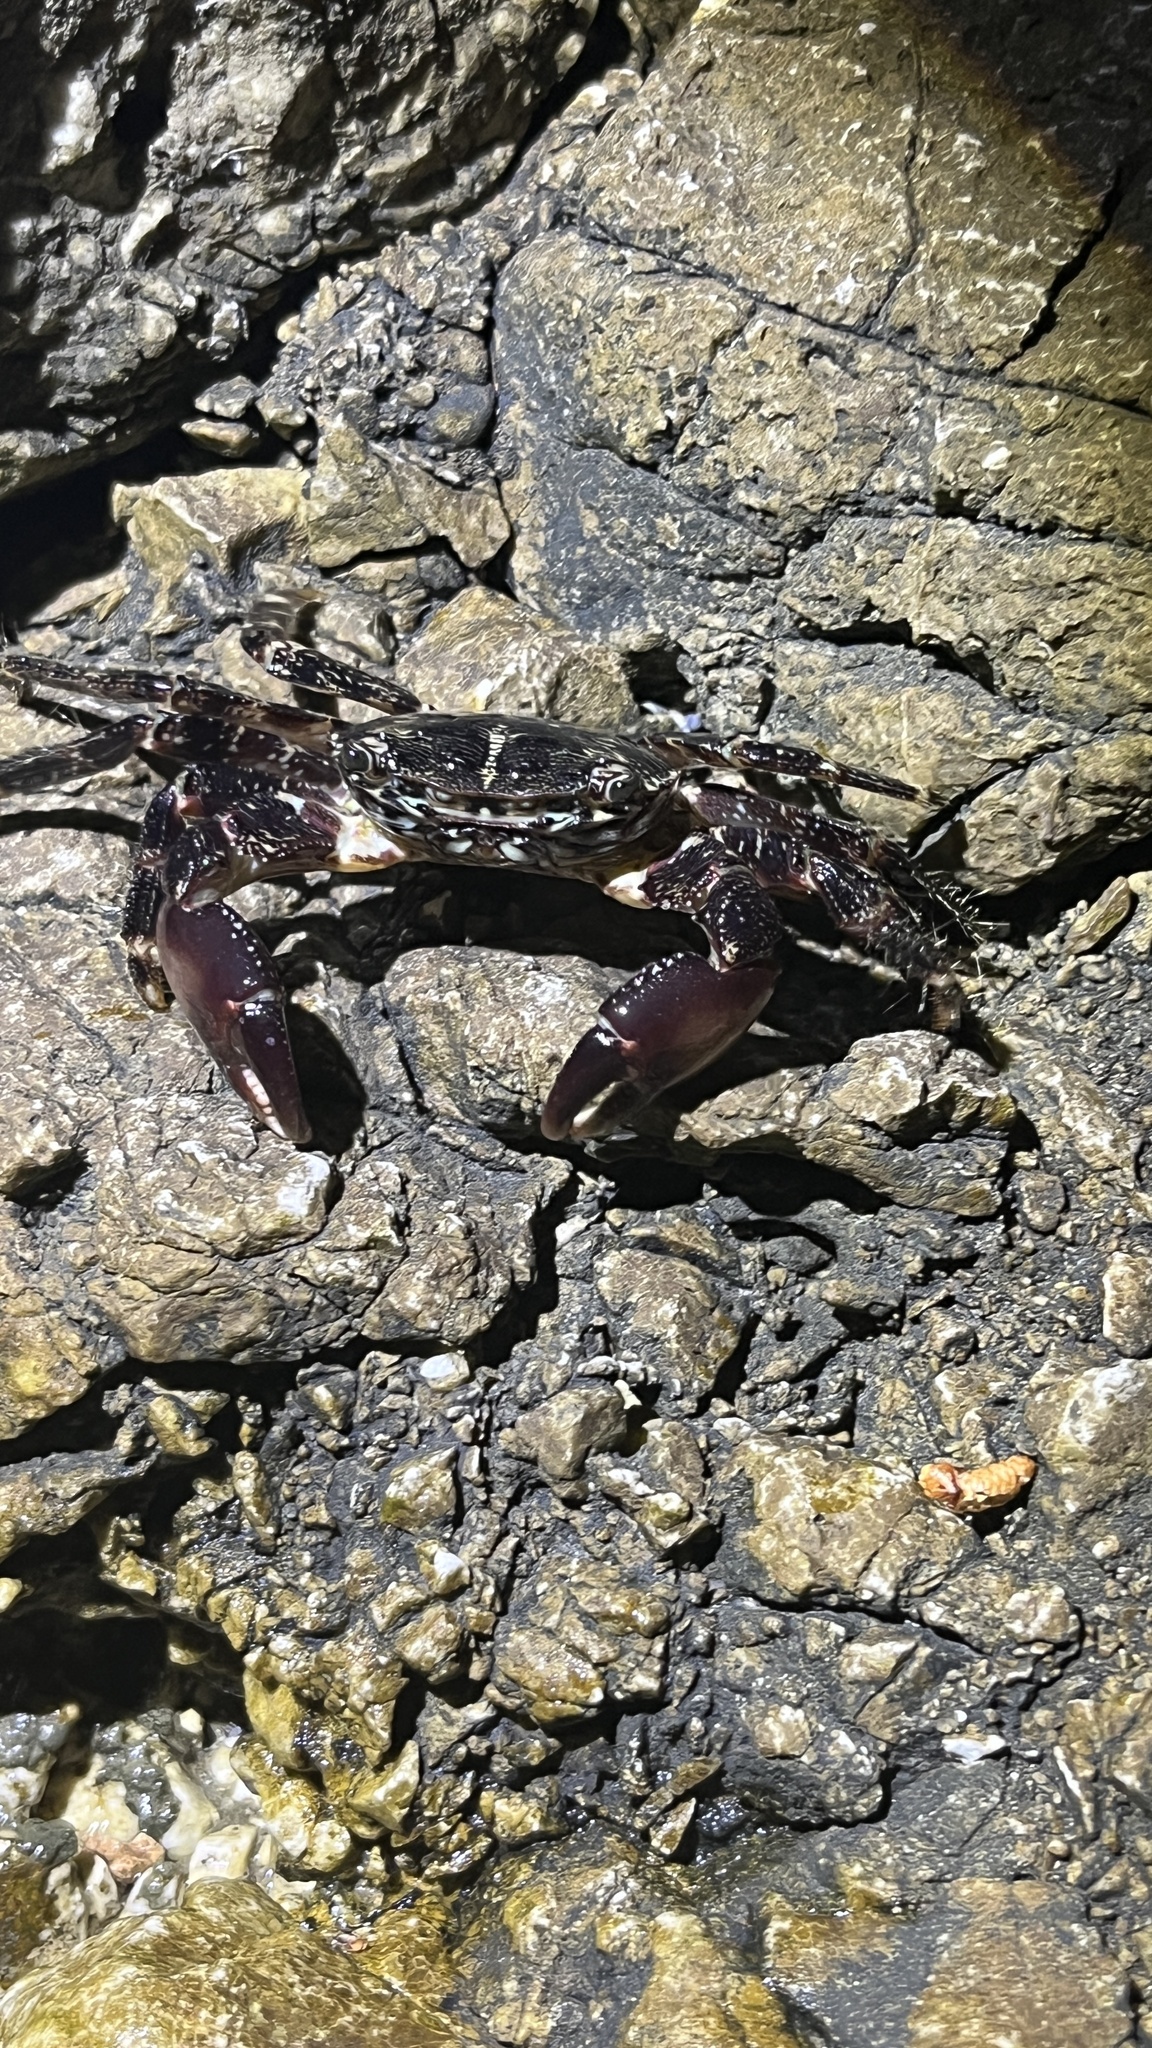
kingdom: Animalia
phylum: Arthropoda
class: Malacostraca
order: Decapoda
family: Grapsidae
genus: Pachygrapsus
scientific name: Pachygrapsus marmoratus
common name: Marbled rock crab
